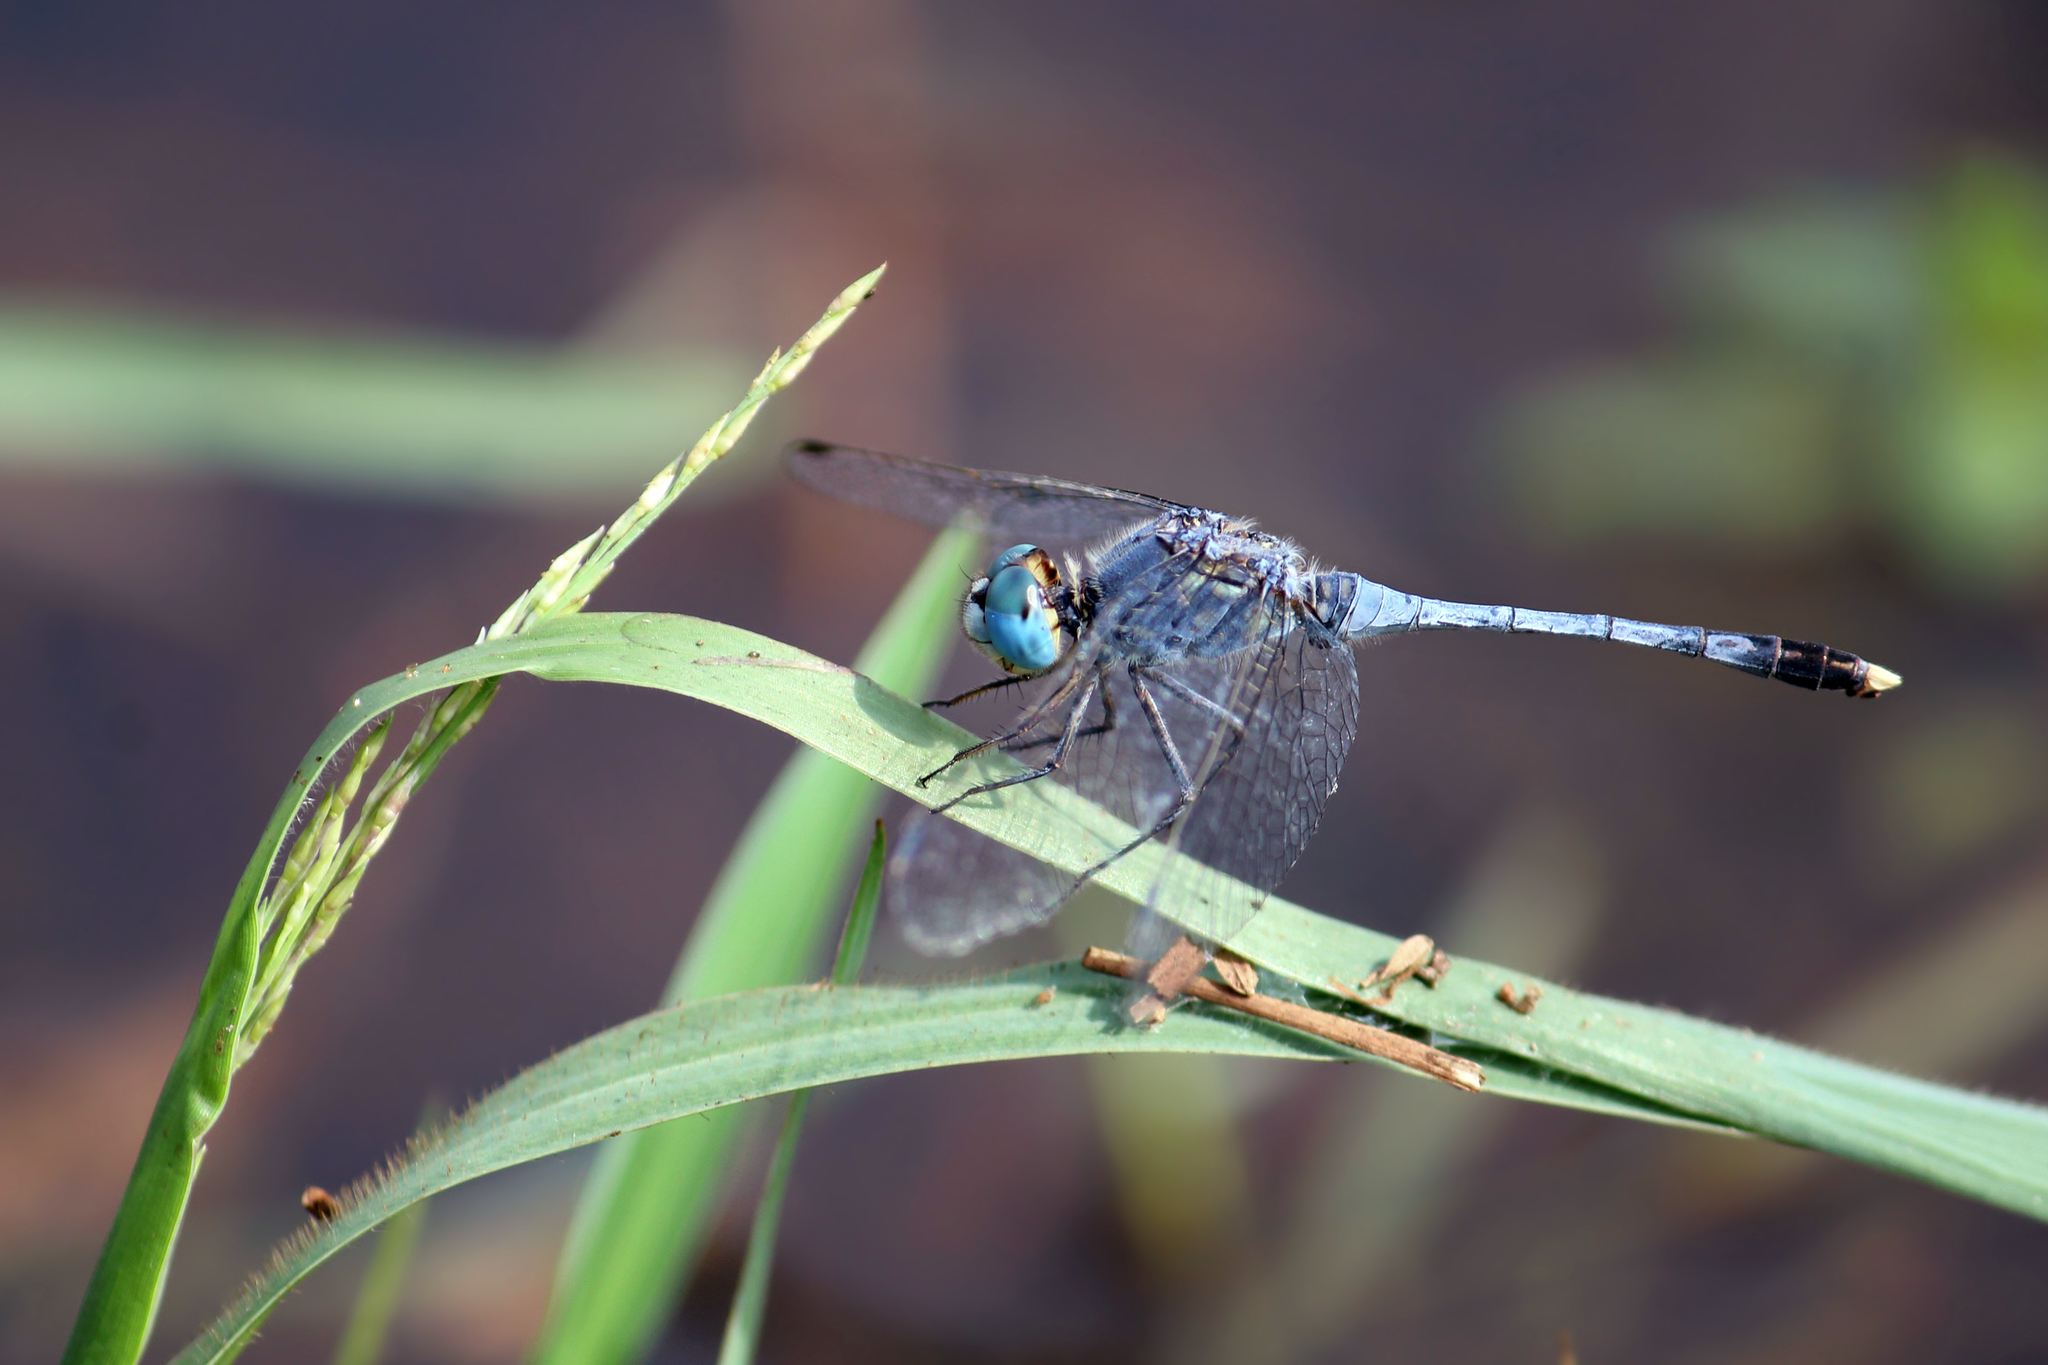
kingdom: Animalia
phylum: Arthropoda
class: Insecta
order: Odonata
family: Libellulidae
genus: Diplacodes
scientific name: Diplacodes trivialis
